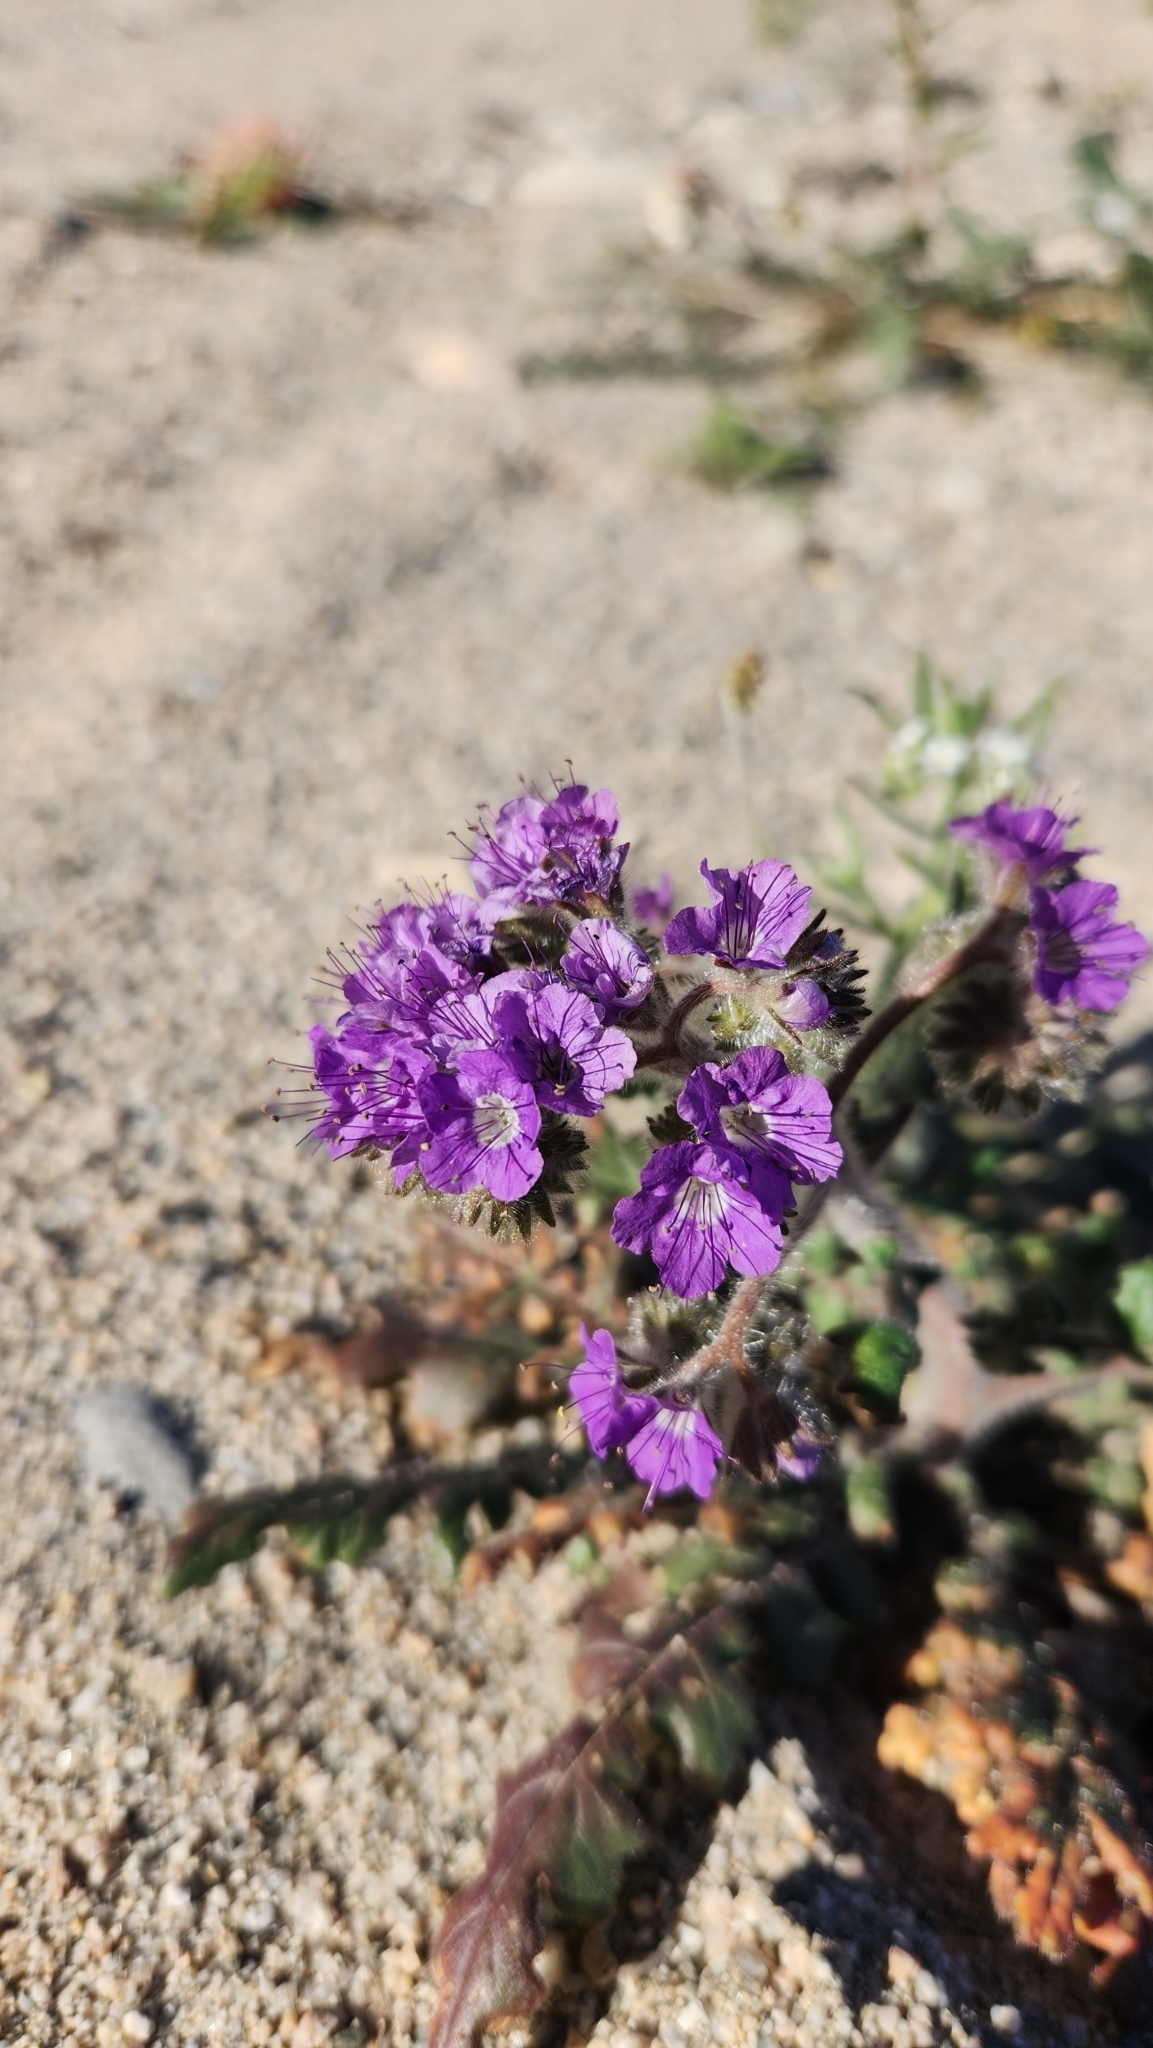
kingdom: Plantae
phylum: Tracheophyta
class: Magnoliopsida
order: Boraginales
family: Hydrophyllaceae
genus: Phacelia
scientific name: Phacelia crenulata
